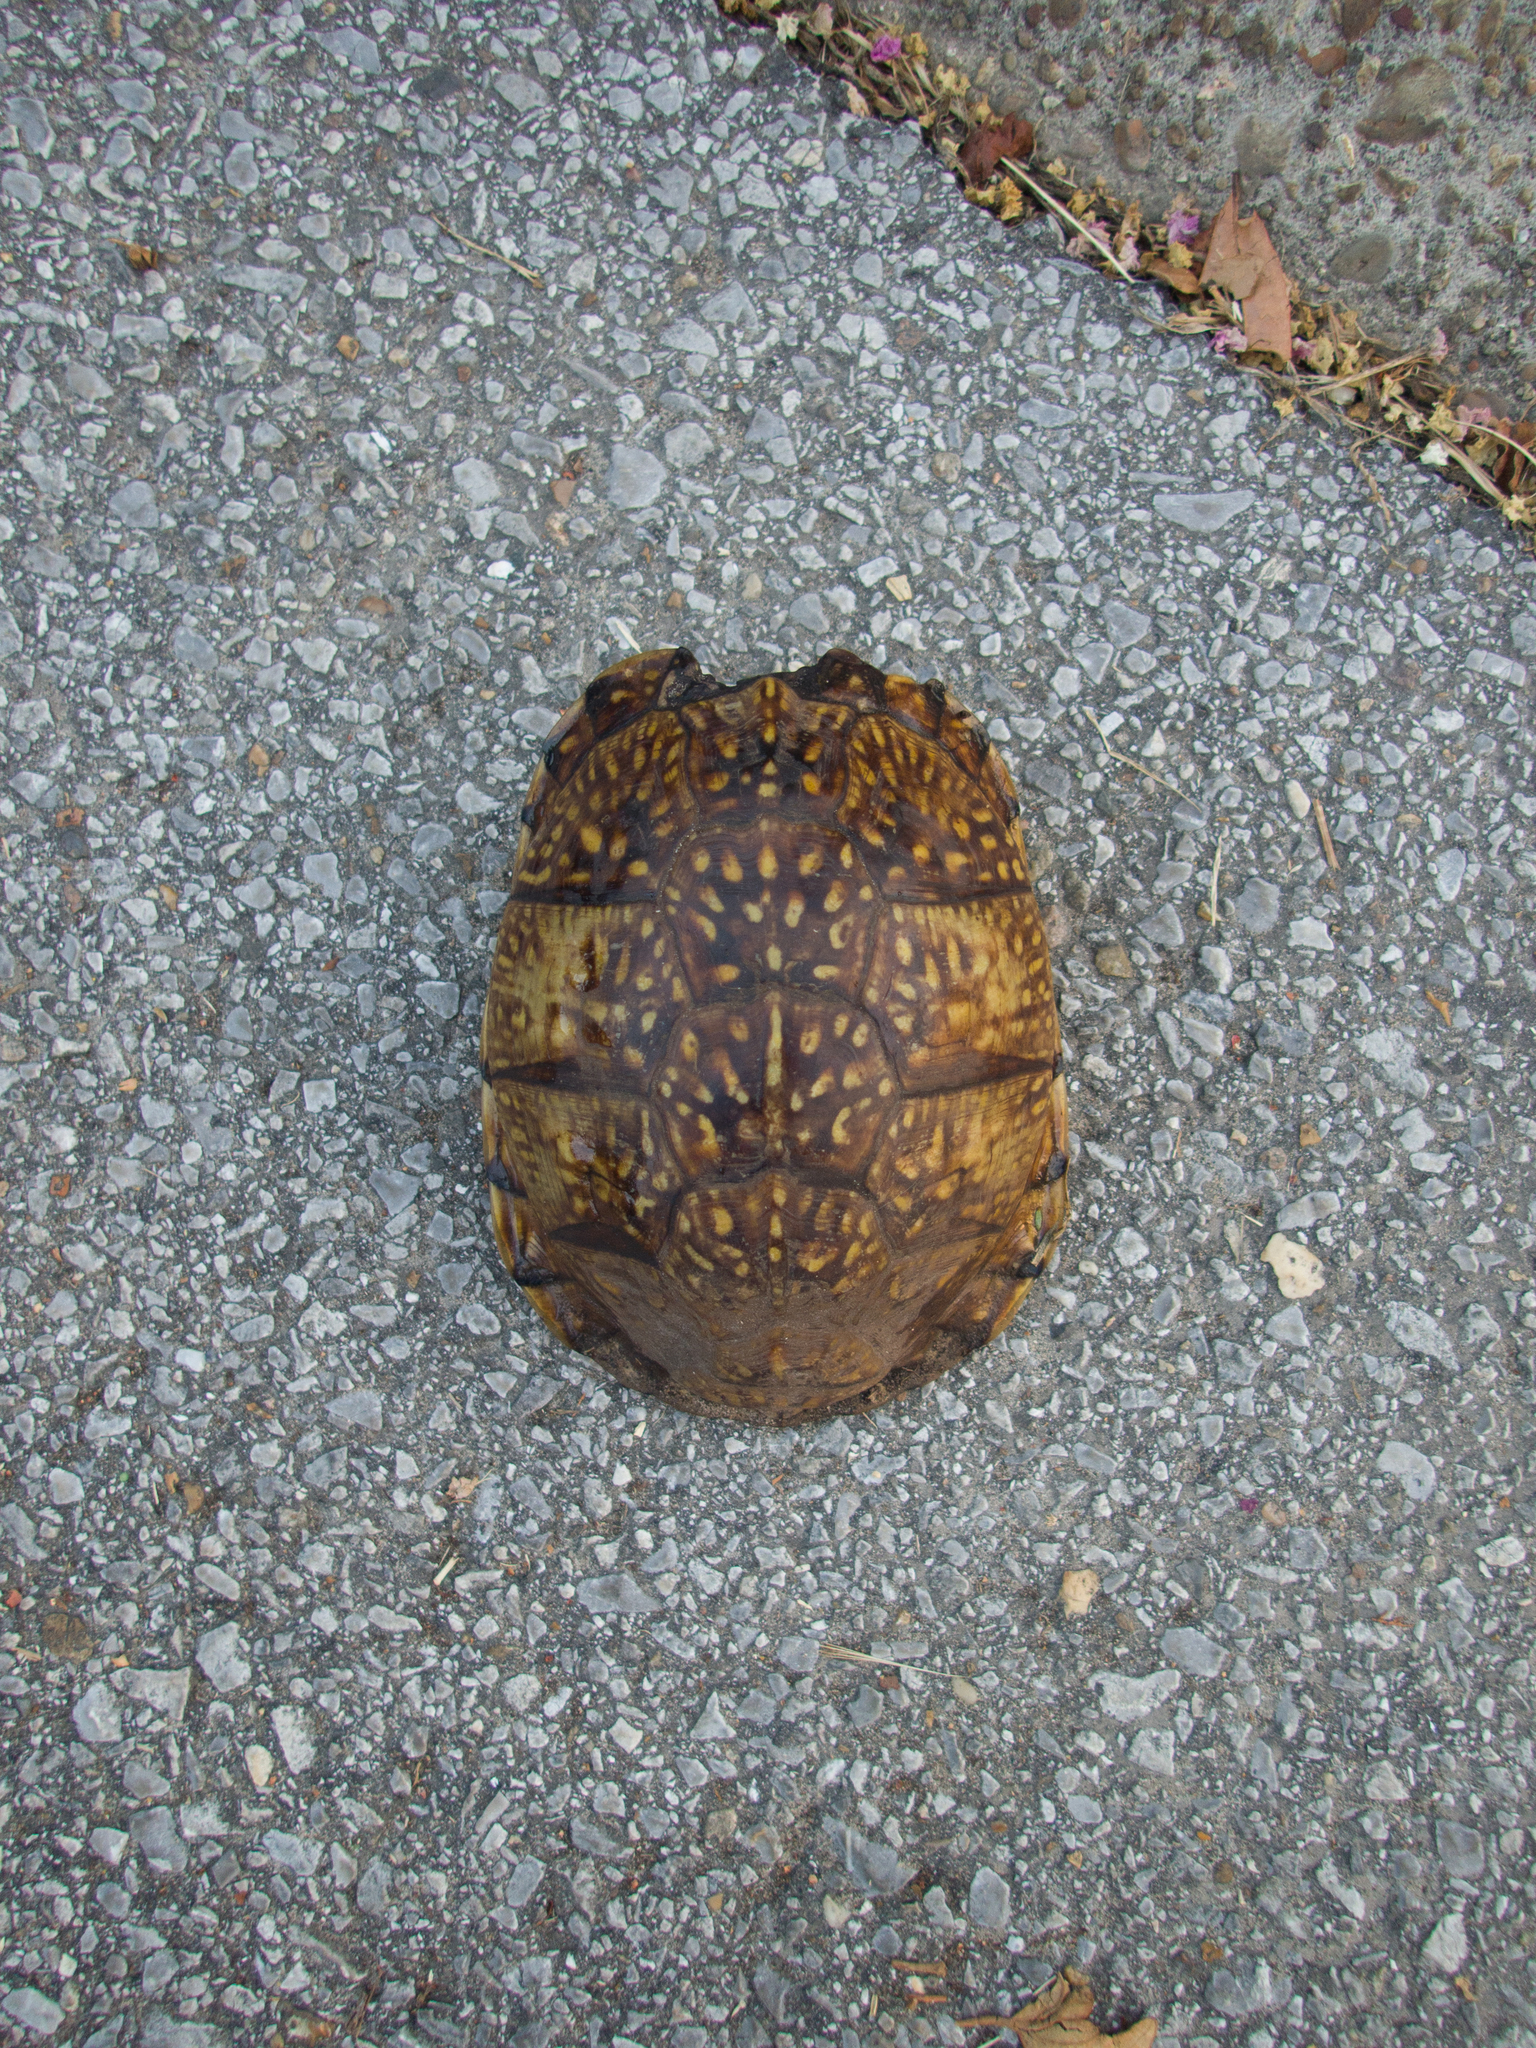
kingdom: Animalia
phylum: Chordata
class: Testudines
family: Emydidae
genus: Terrapene
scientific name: Terrapene carolina
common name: Common box turtle
